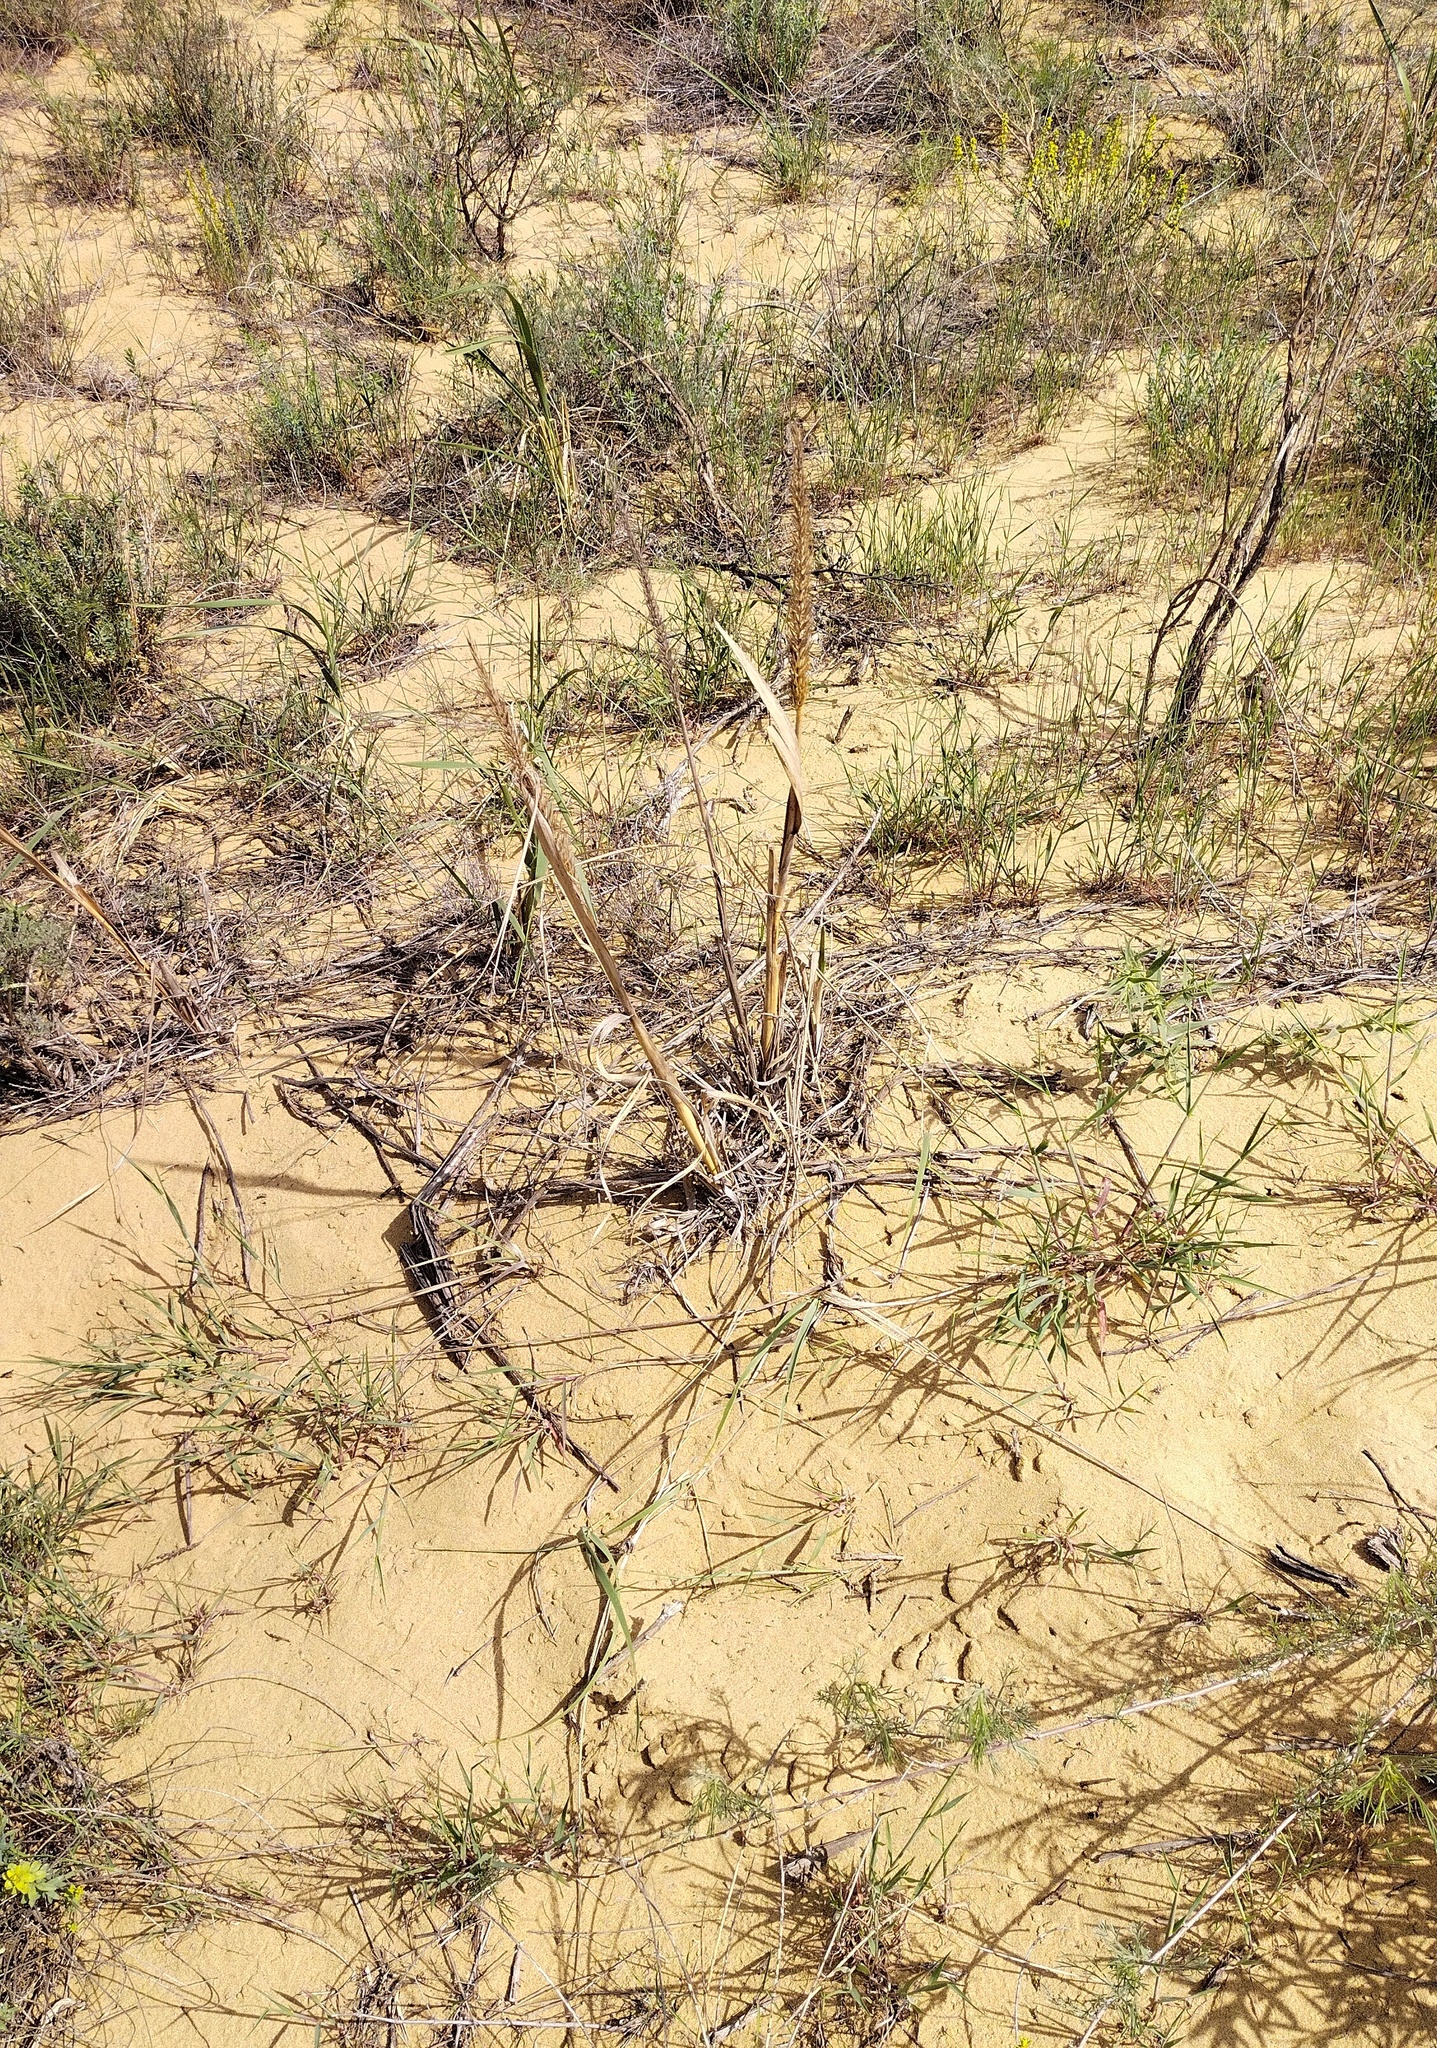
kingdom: Plantae
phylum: Tracheophyta
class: Liliopsida
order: Poales
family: Poaceae
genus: Leymus
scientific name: Leymus racemosus
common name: Mammoth wildrye
